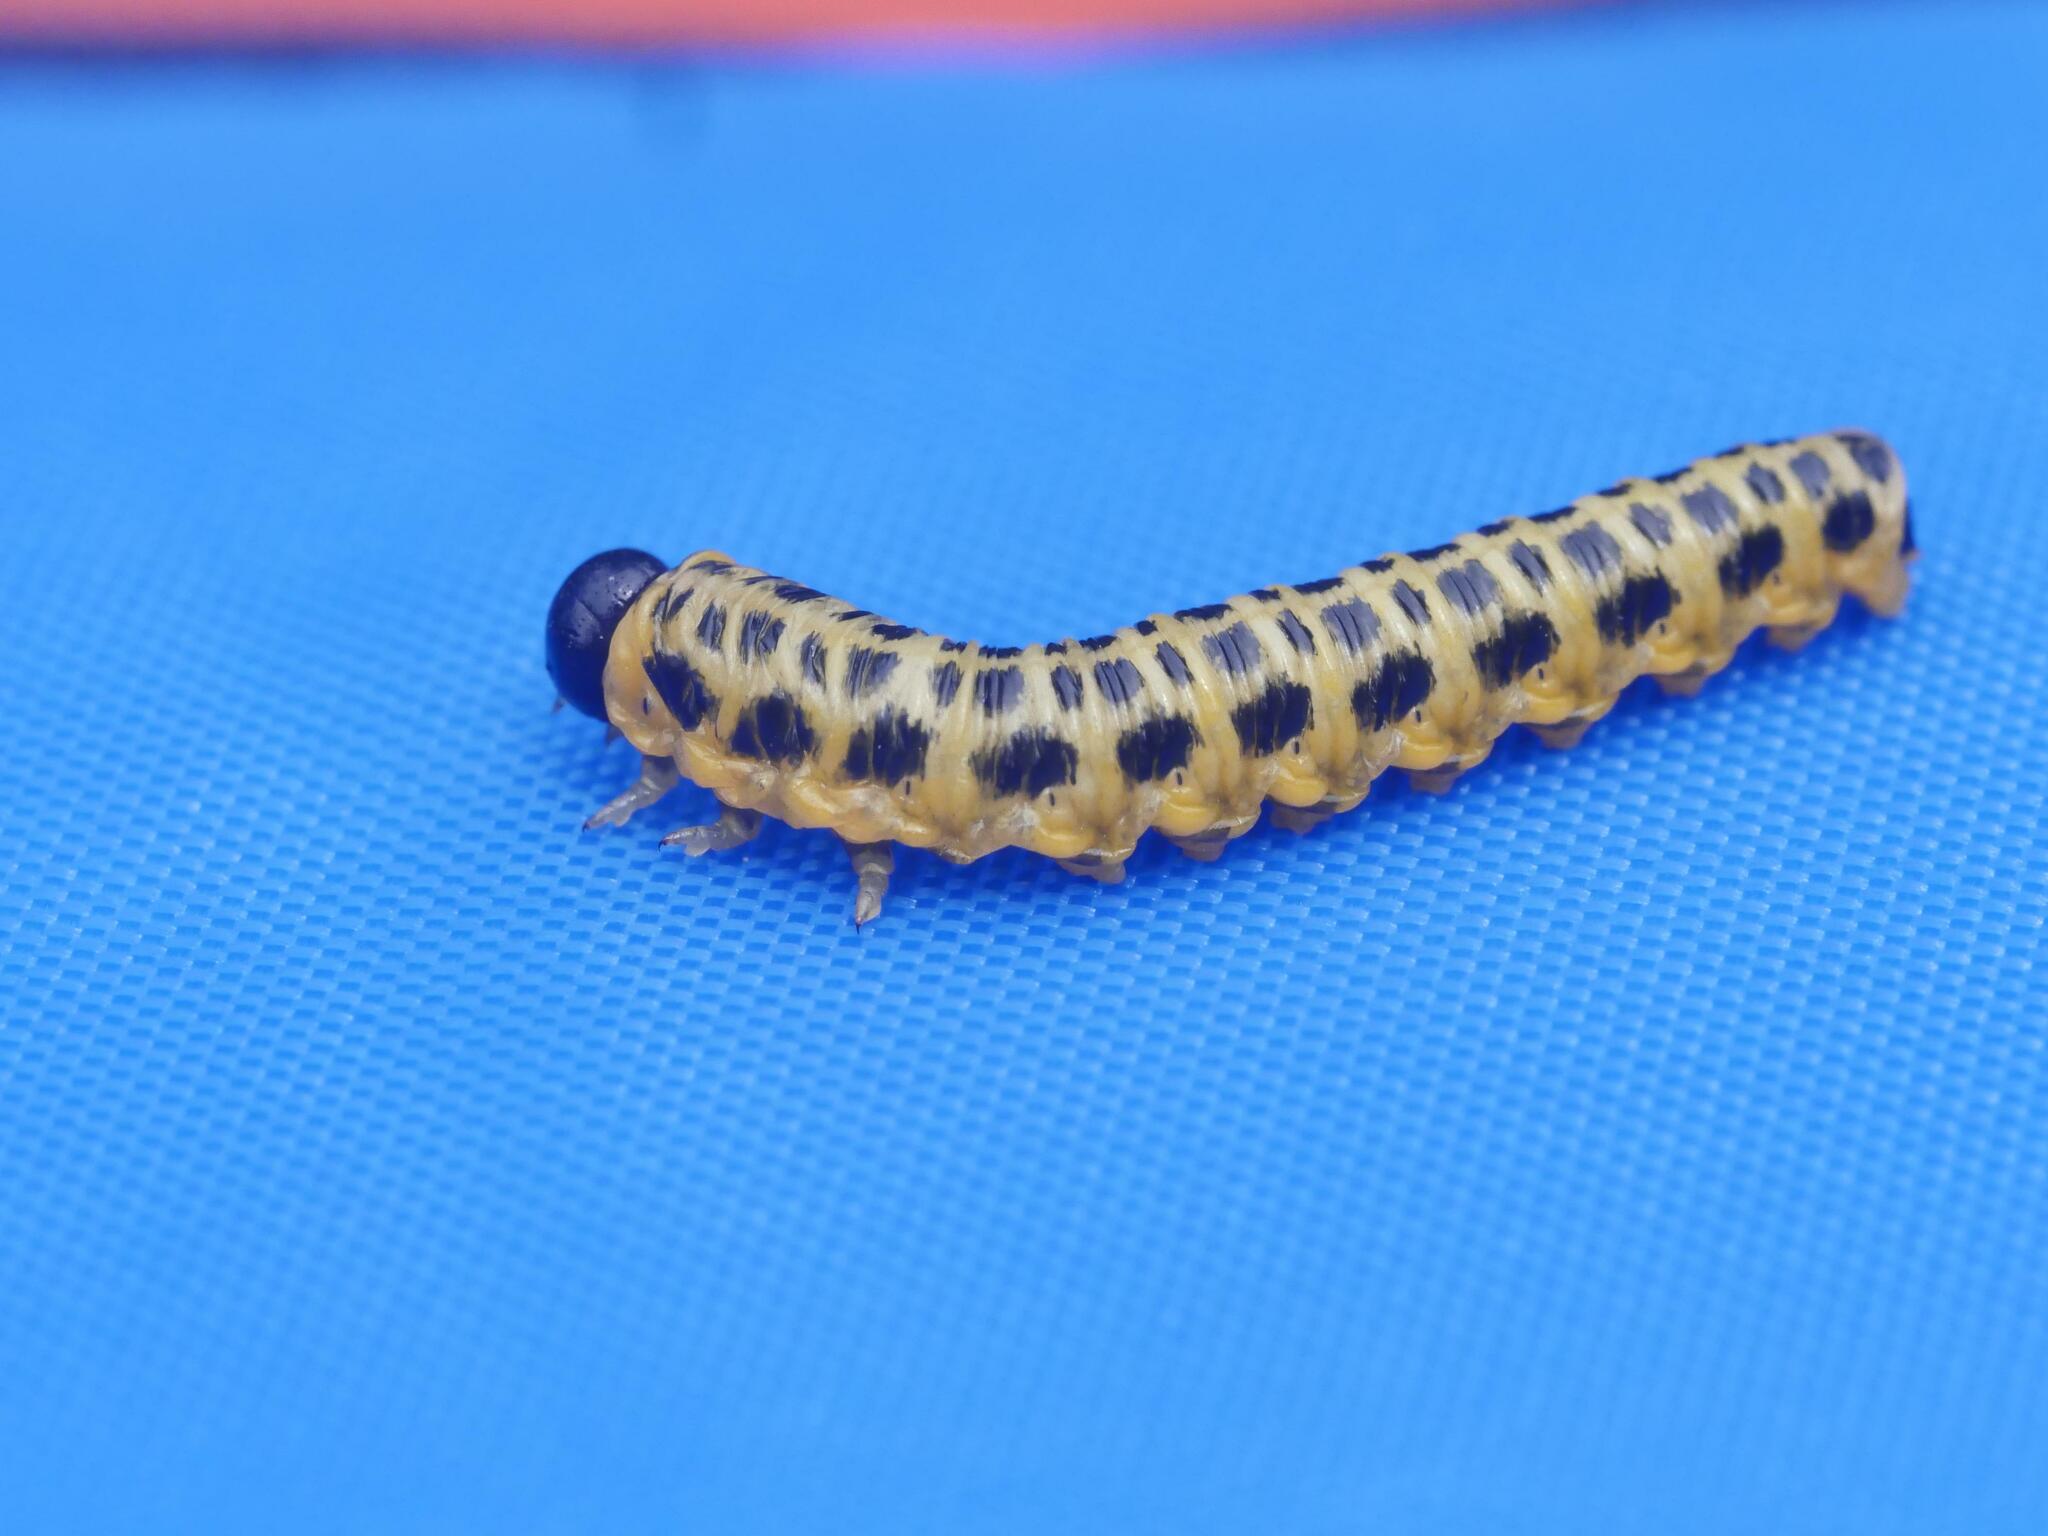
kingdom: Animalia
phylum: Arthropoda
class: Insecta
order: Hymenoptera
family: Tenthredinidae
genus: Macremphytus
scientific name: Macremphytus testaceus
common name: Dogwood sawfly
